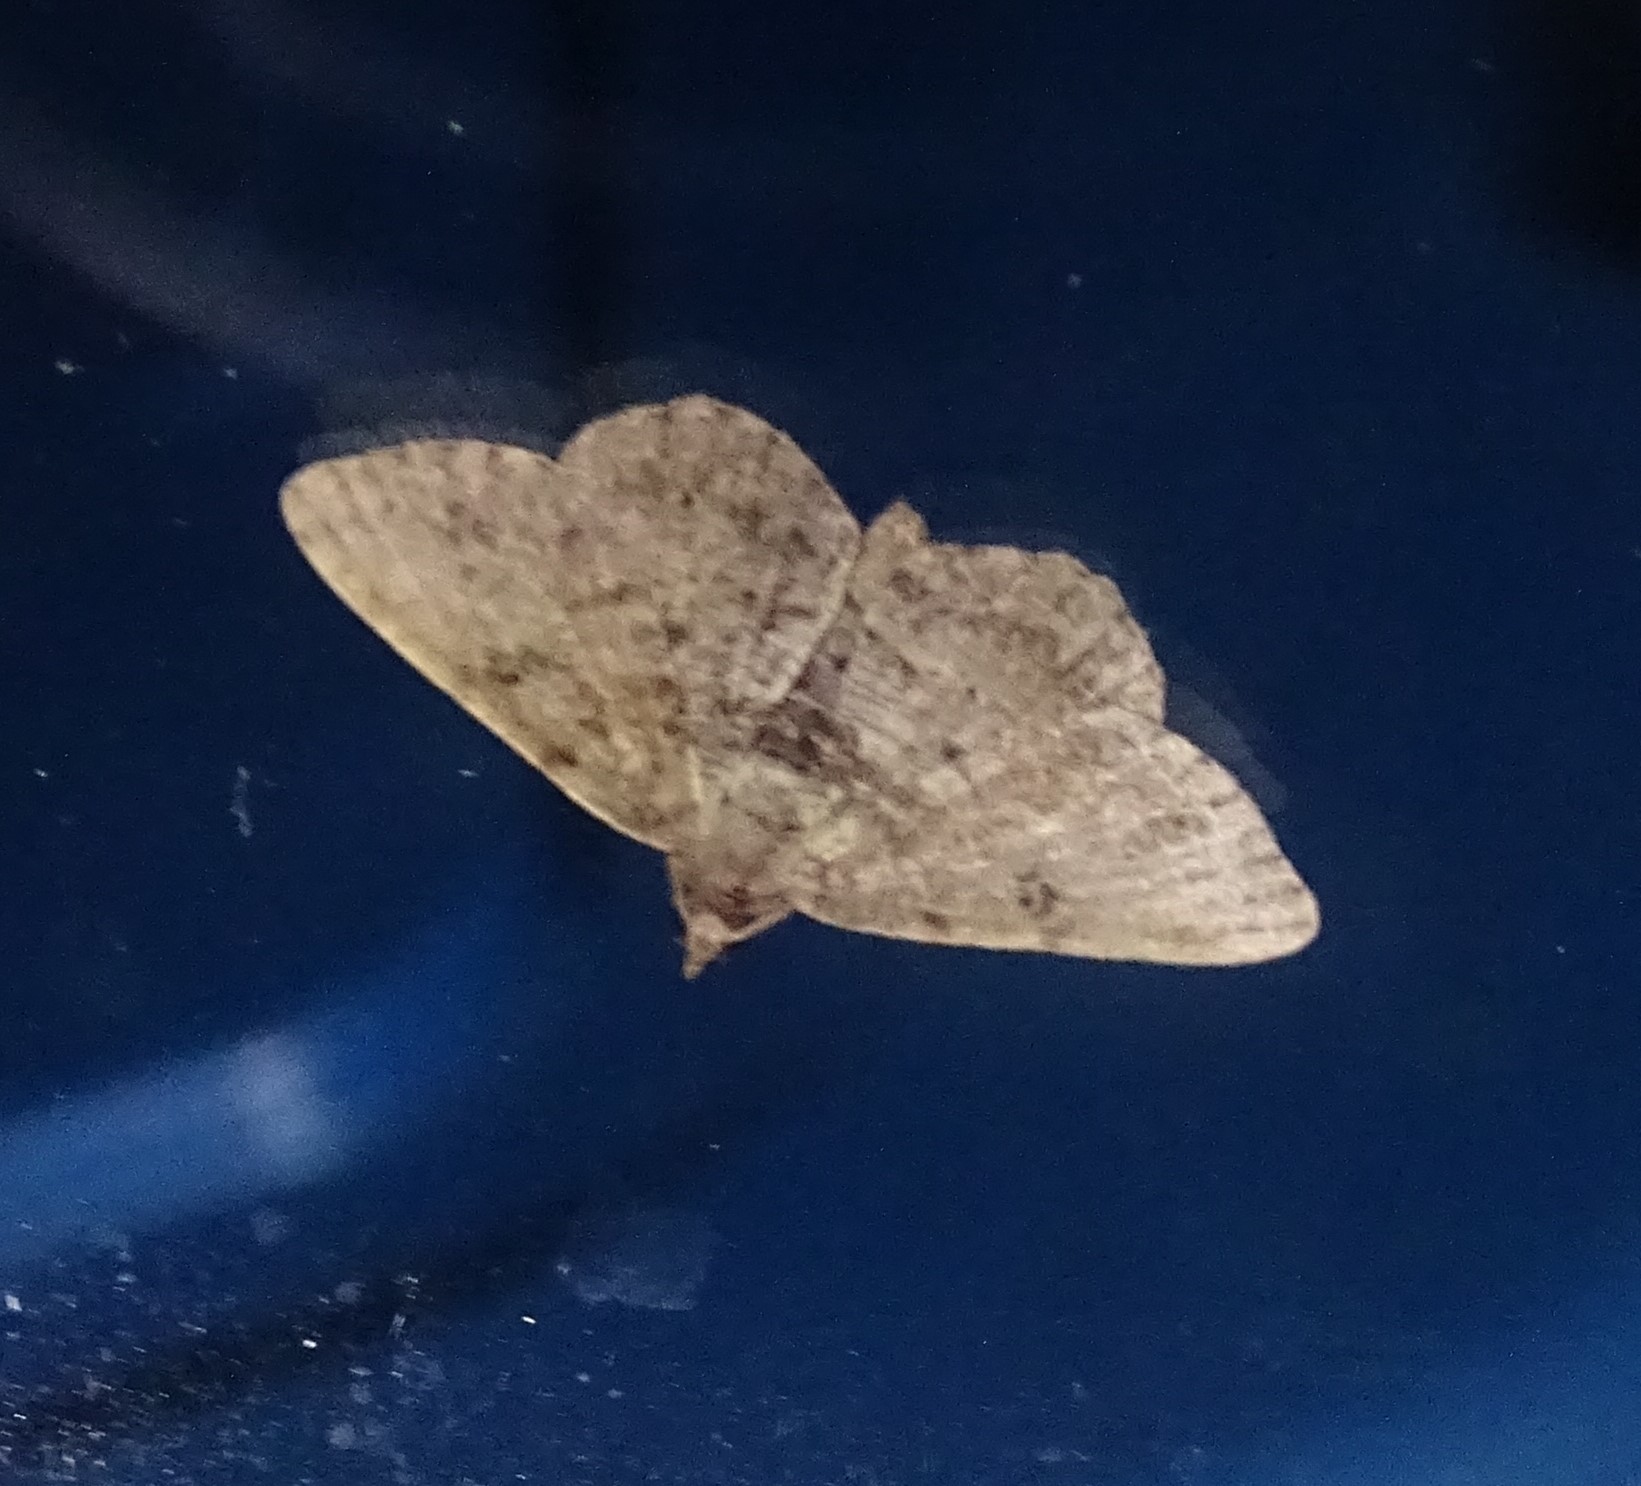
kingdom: Animalia
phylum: Arthropoda
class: Insecta
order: Lepidoptera
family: Geometridae
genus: Digrammia
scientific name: Digrammia gnophosaria
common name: Hollow-spotted angle
